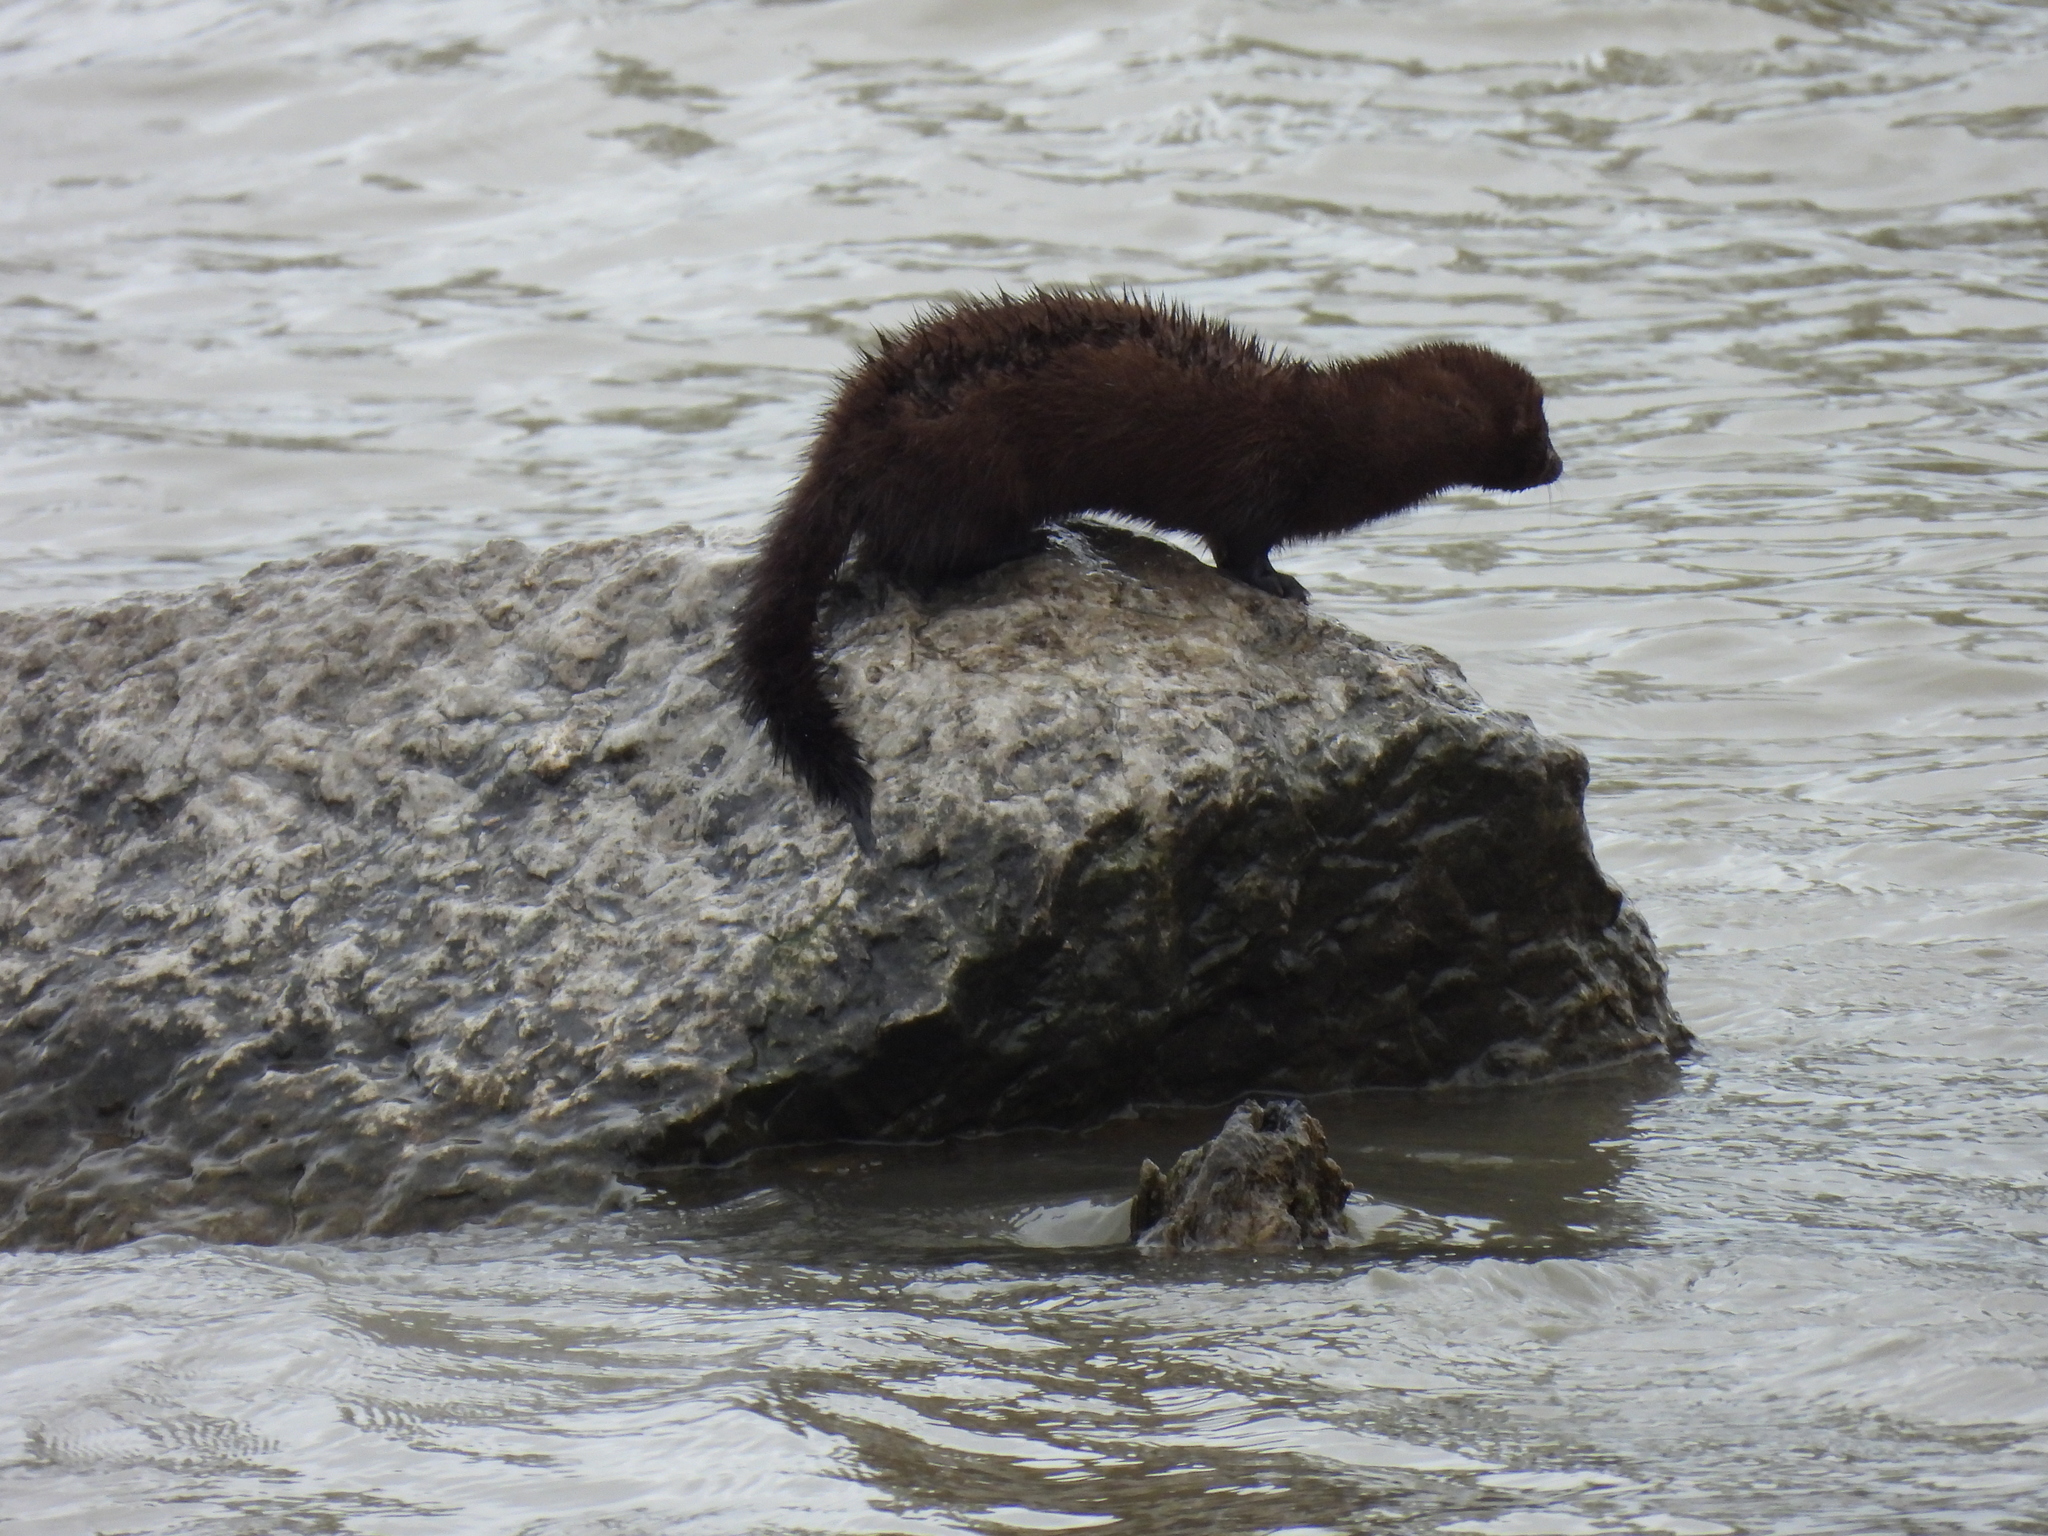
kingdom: Animalia
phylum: Chordata
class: Mammalia
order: Carnivora
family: Mustelidae
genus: Mustela
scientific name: Mustela
